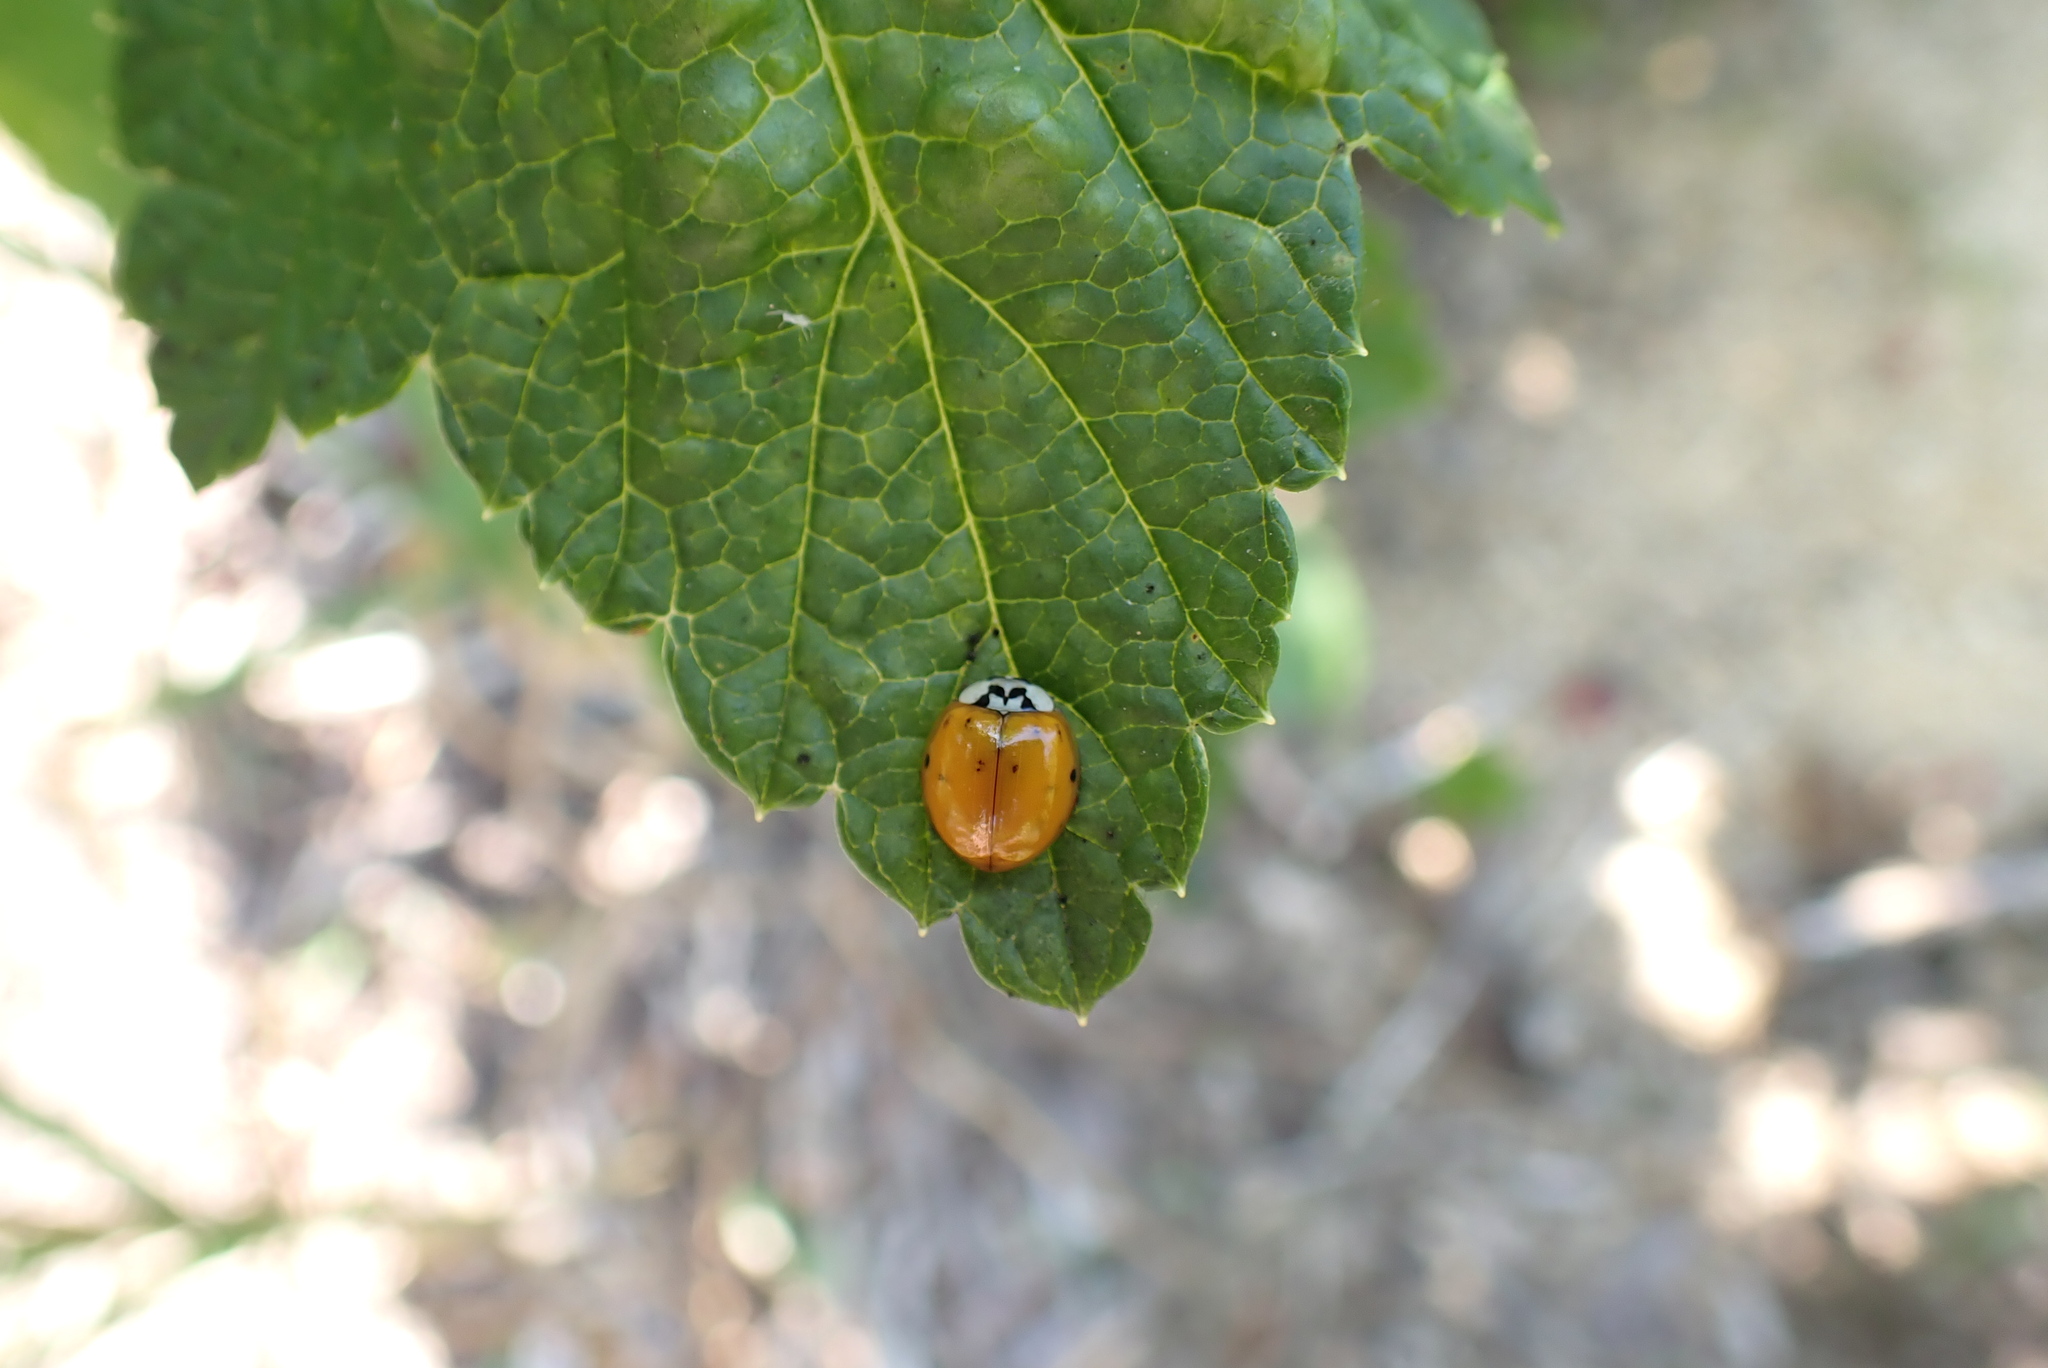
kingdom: Animalia
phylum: Arthropoda
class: Insecta
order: Coleoptera
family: Coccinellidae
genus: Harmonia
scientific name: Harmonia axyridis
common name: Harlequin ladybird
